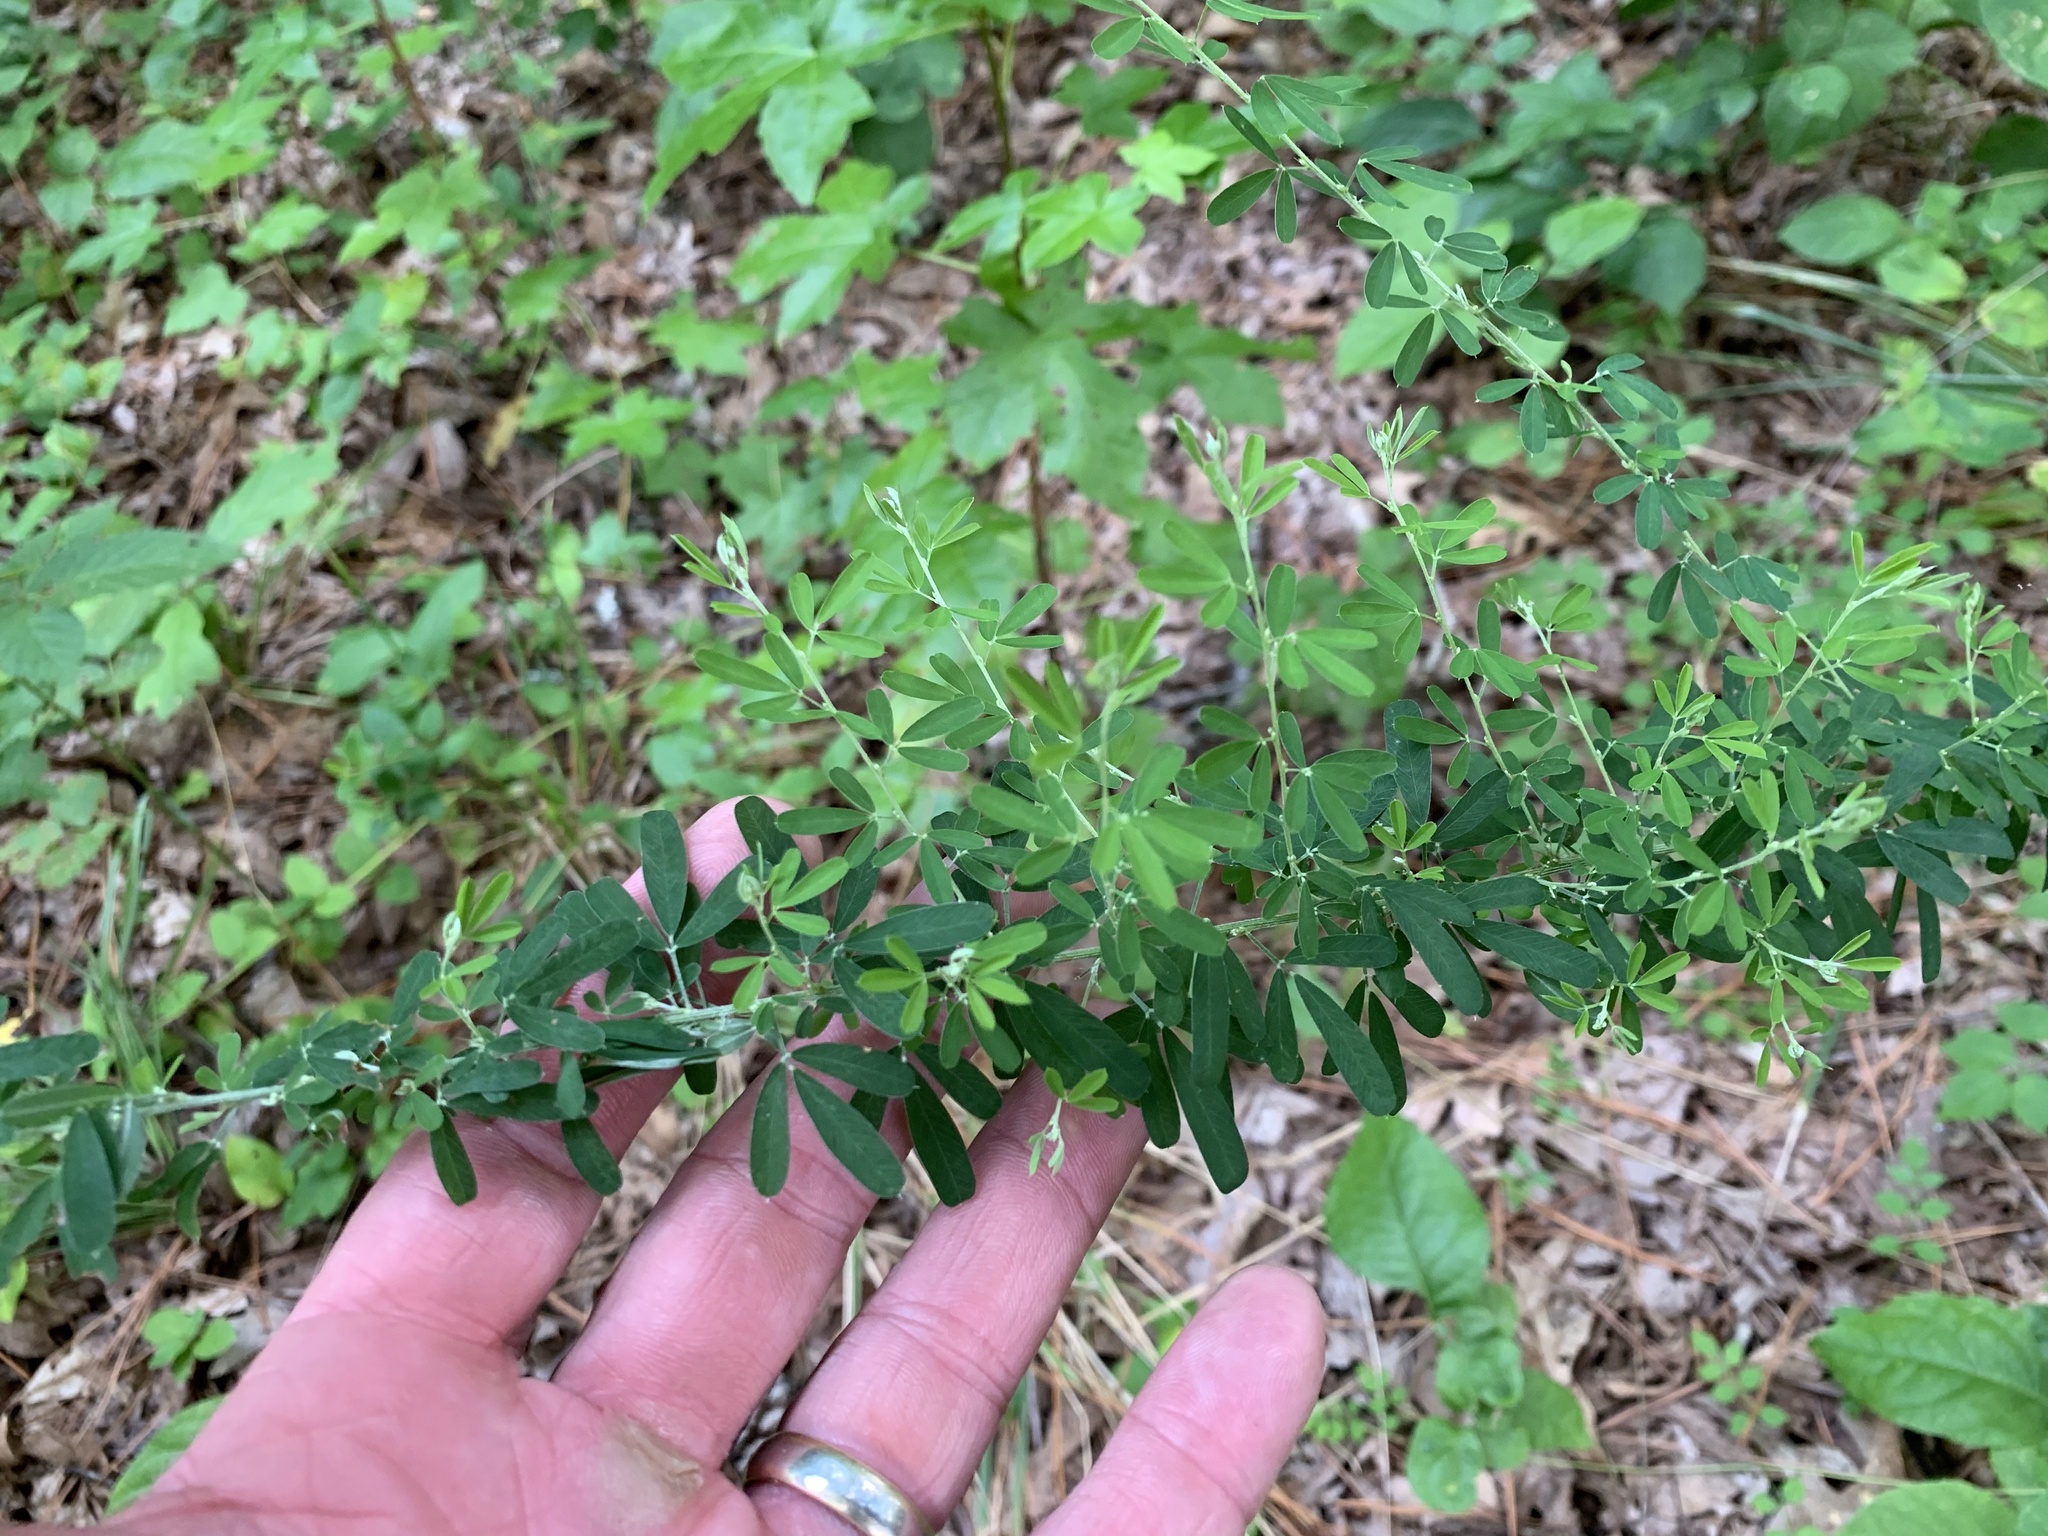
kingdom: Plantae
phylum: Tracheophyta
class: Magnoliopsida
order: Fabales
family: Fabaceae
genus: Lespedeza
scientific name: Lespedeza cuneata
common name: Chinese bush-clover
